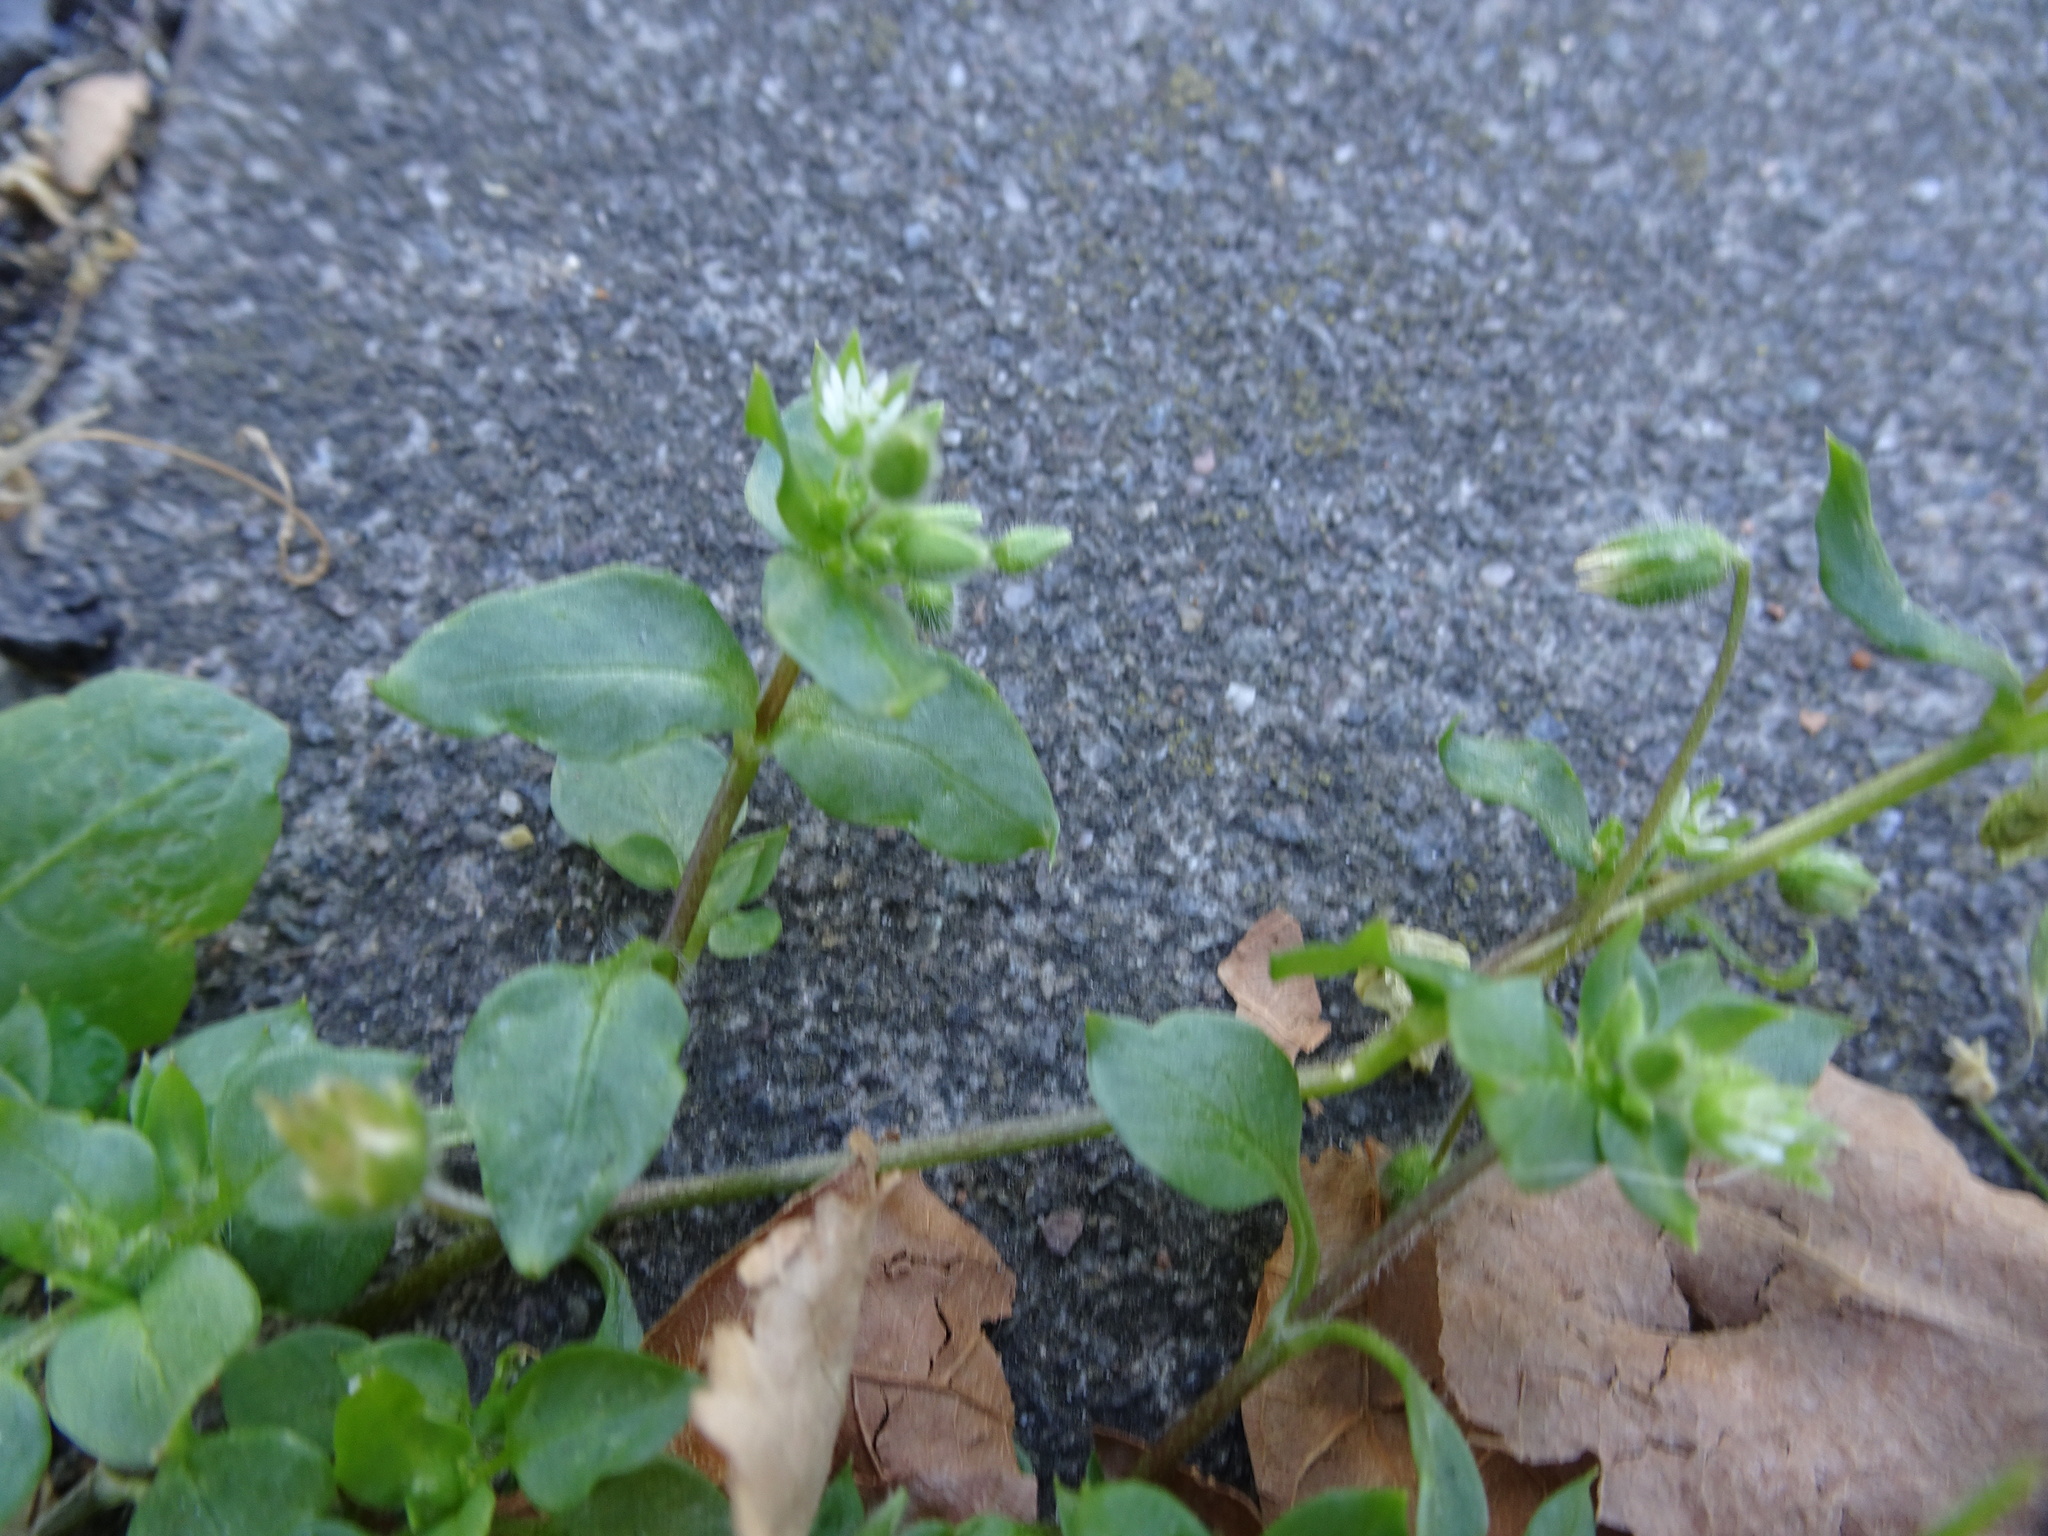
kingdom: Plantae
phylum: Tracheophyta
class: Magnoliopsida
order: Caryophyllales
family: Caryophyllaceae
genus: Stellaria
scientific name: Stellaria media
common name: Common chickweed
